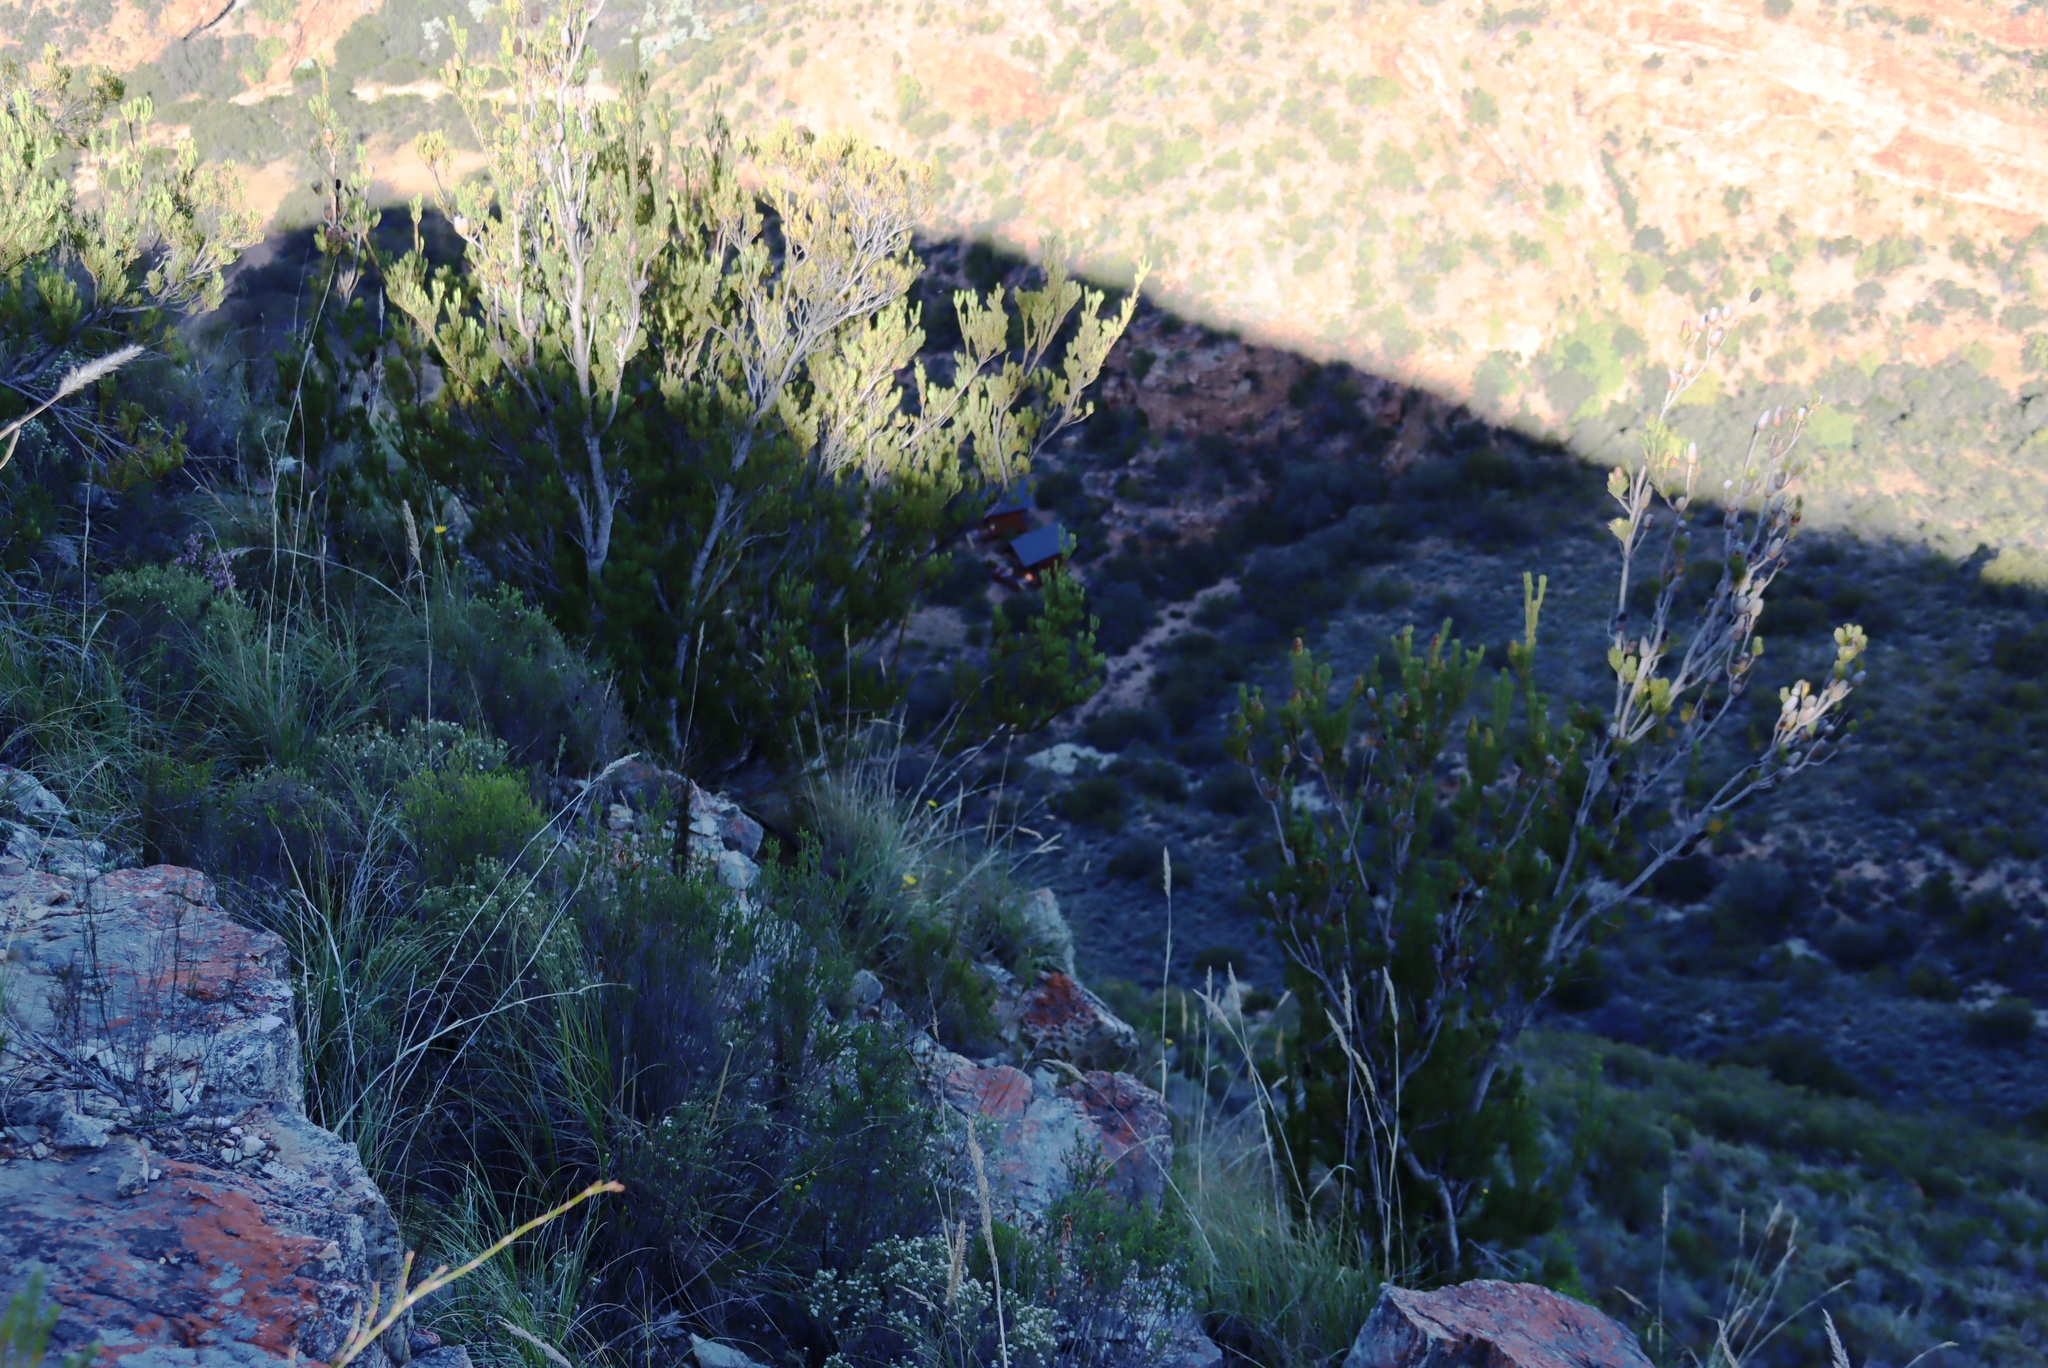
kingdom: Plantae
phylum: Tracheophyta
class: Magnoliopsida
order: Proteales
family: Proteaceae
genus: Leucadendron
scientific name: Leucadendron nobile
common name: Karoo conebush
